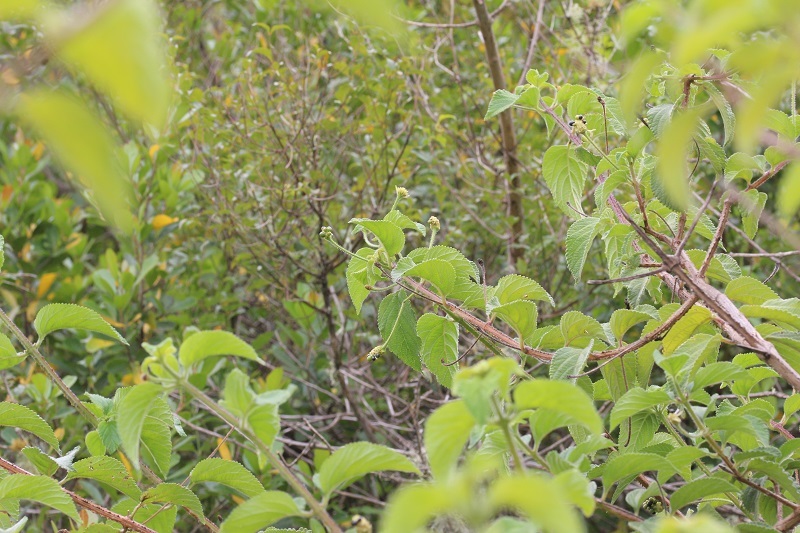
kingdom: Plantae
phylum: Tracheophyta
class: Magnoliopsida
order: Lamiales
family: Verbenaceae
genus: Lantana
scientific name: Lantana camara
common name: Lantana
